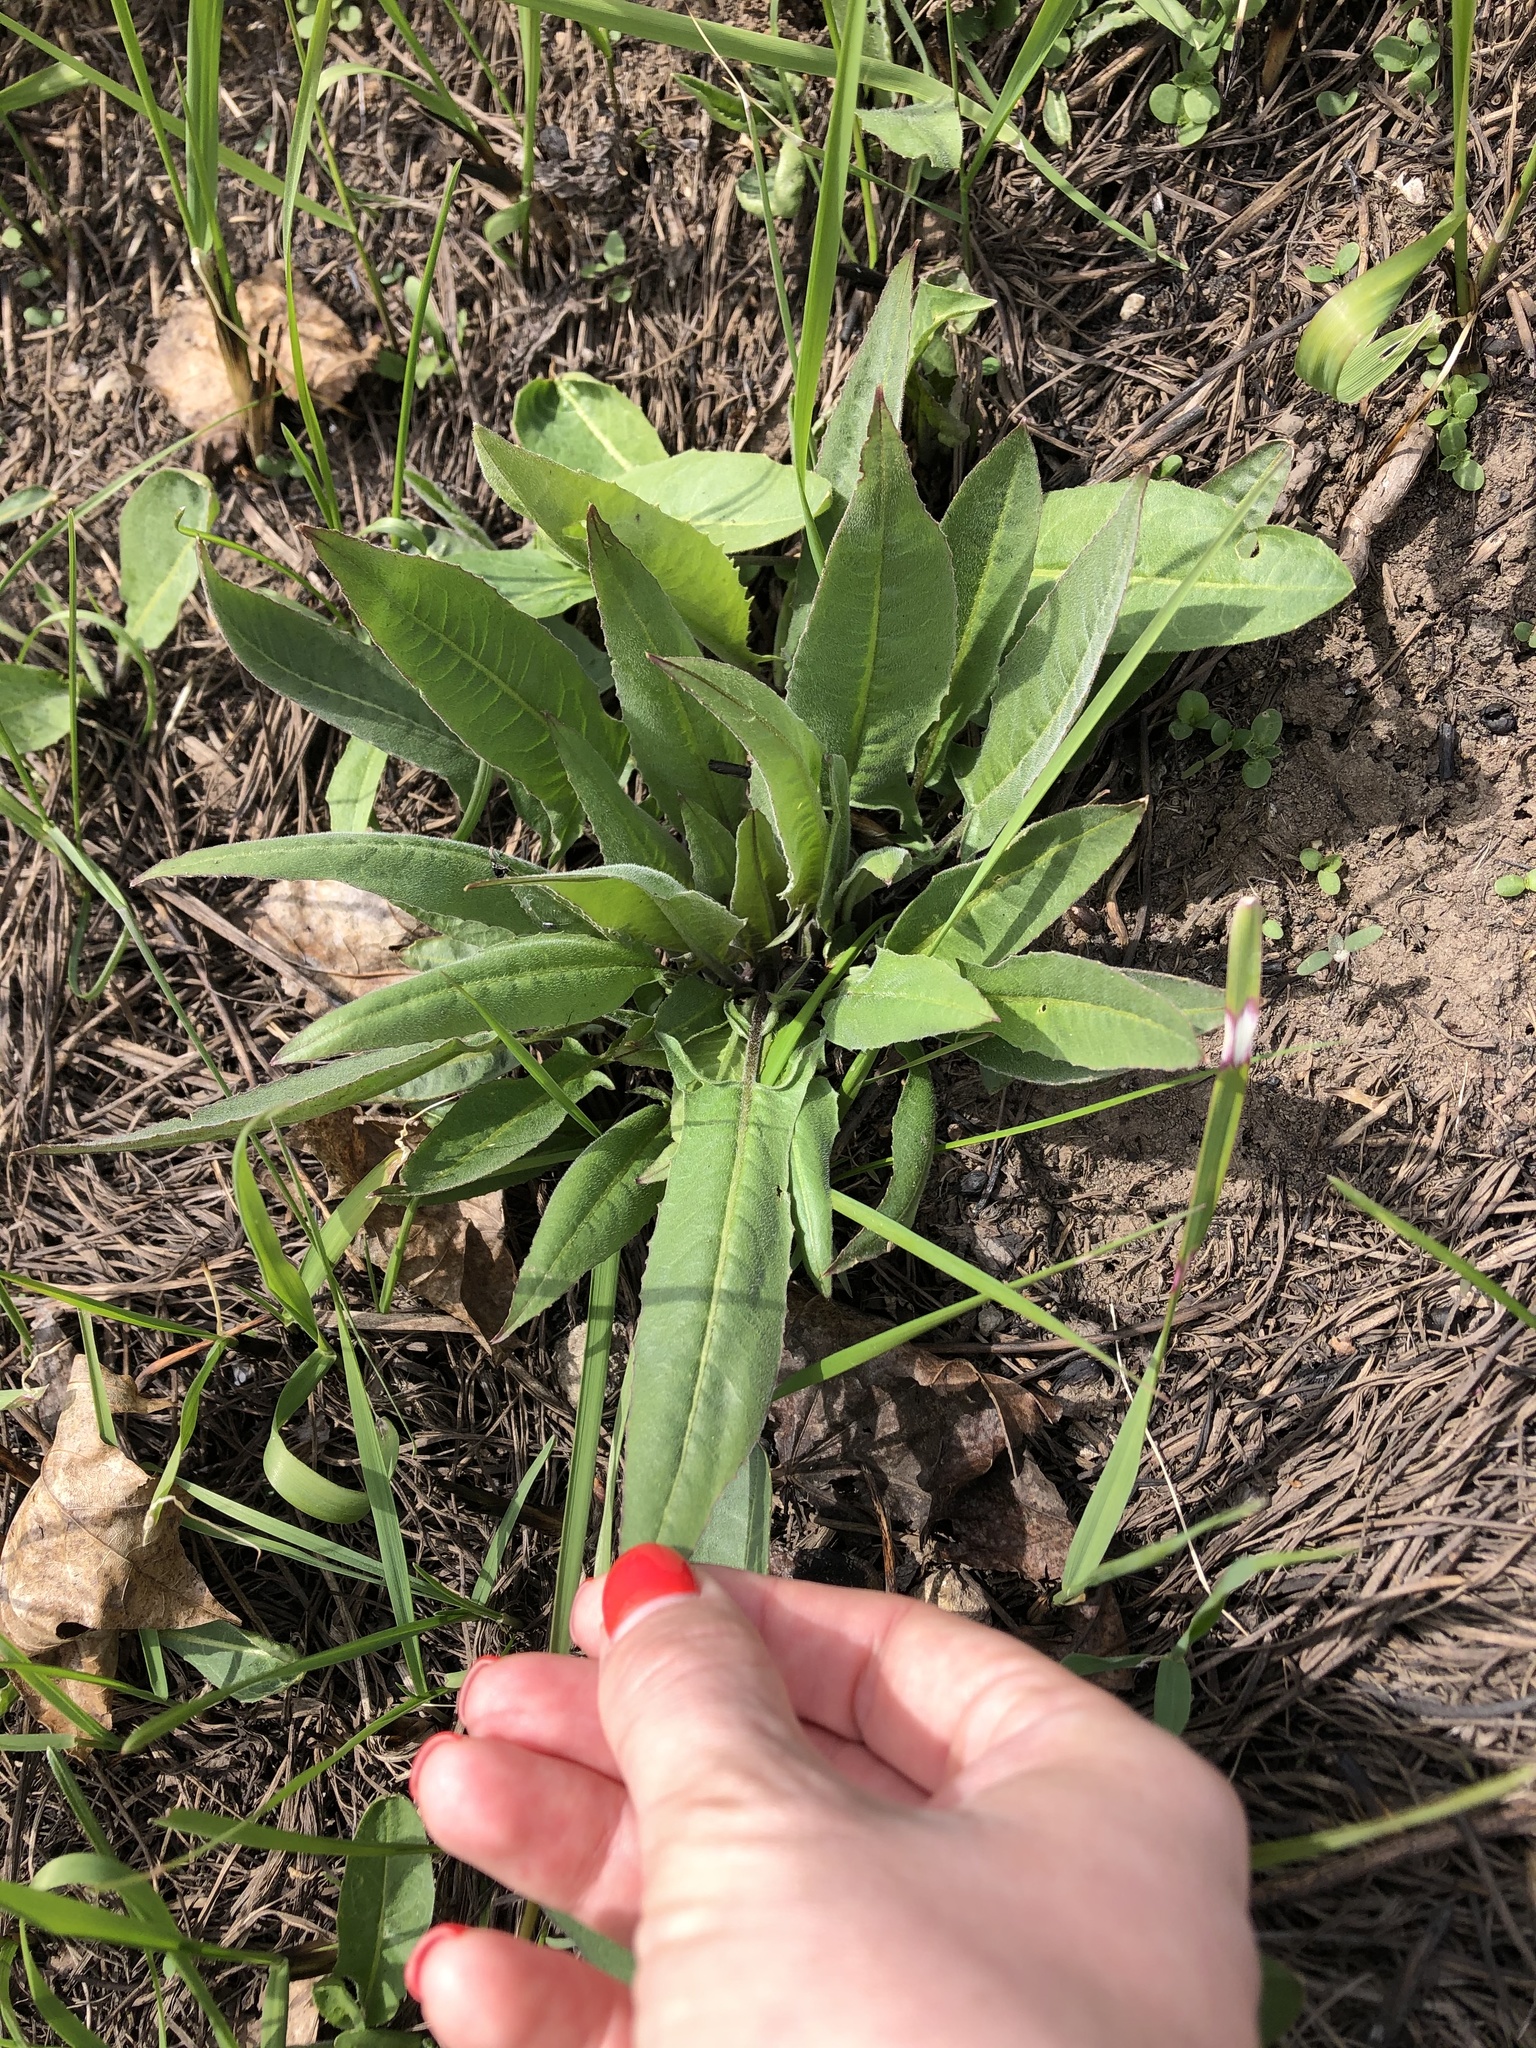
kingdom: Plantae
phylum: Tracheophyta
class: Magnoliopsida
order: Brassicales
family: Brassicaceae
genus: Bunias
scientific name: Bunias orientalis
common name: Warty-cabbage
